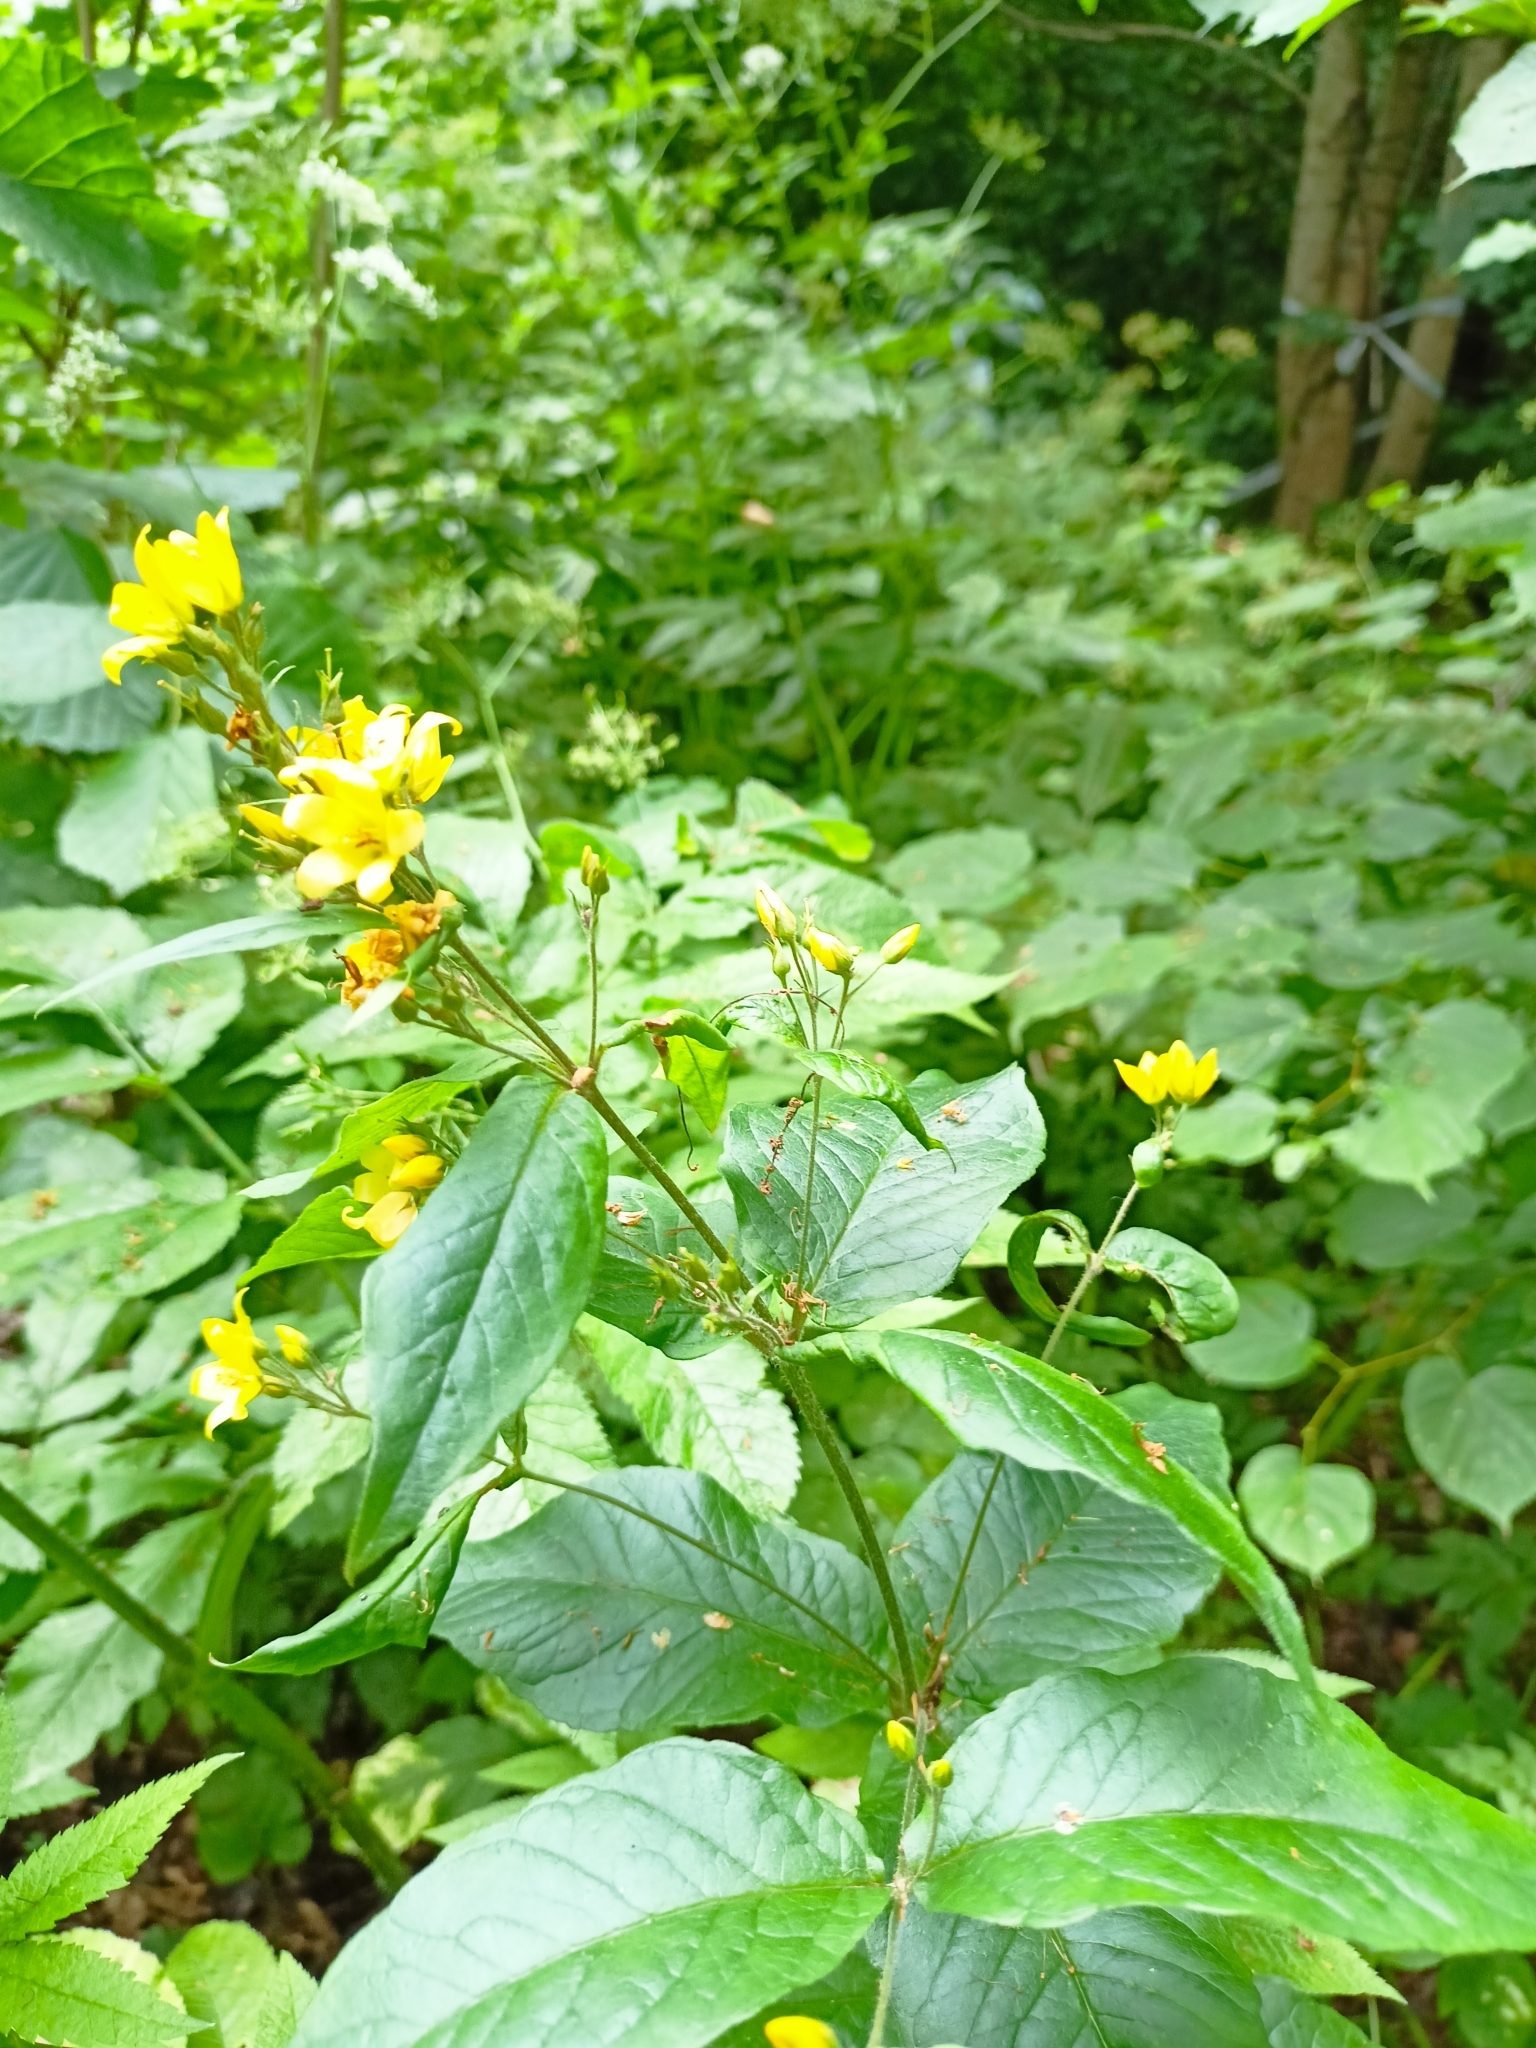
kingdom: Plantae
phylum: Tracheophyta
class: Magnoliopsida
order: Ericales
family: Primulaceae
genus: Lysimachia
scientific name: Lysimachia vulgaris
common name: Yellow loosestrife
